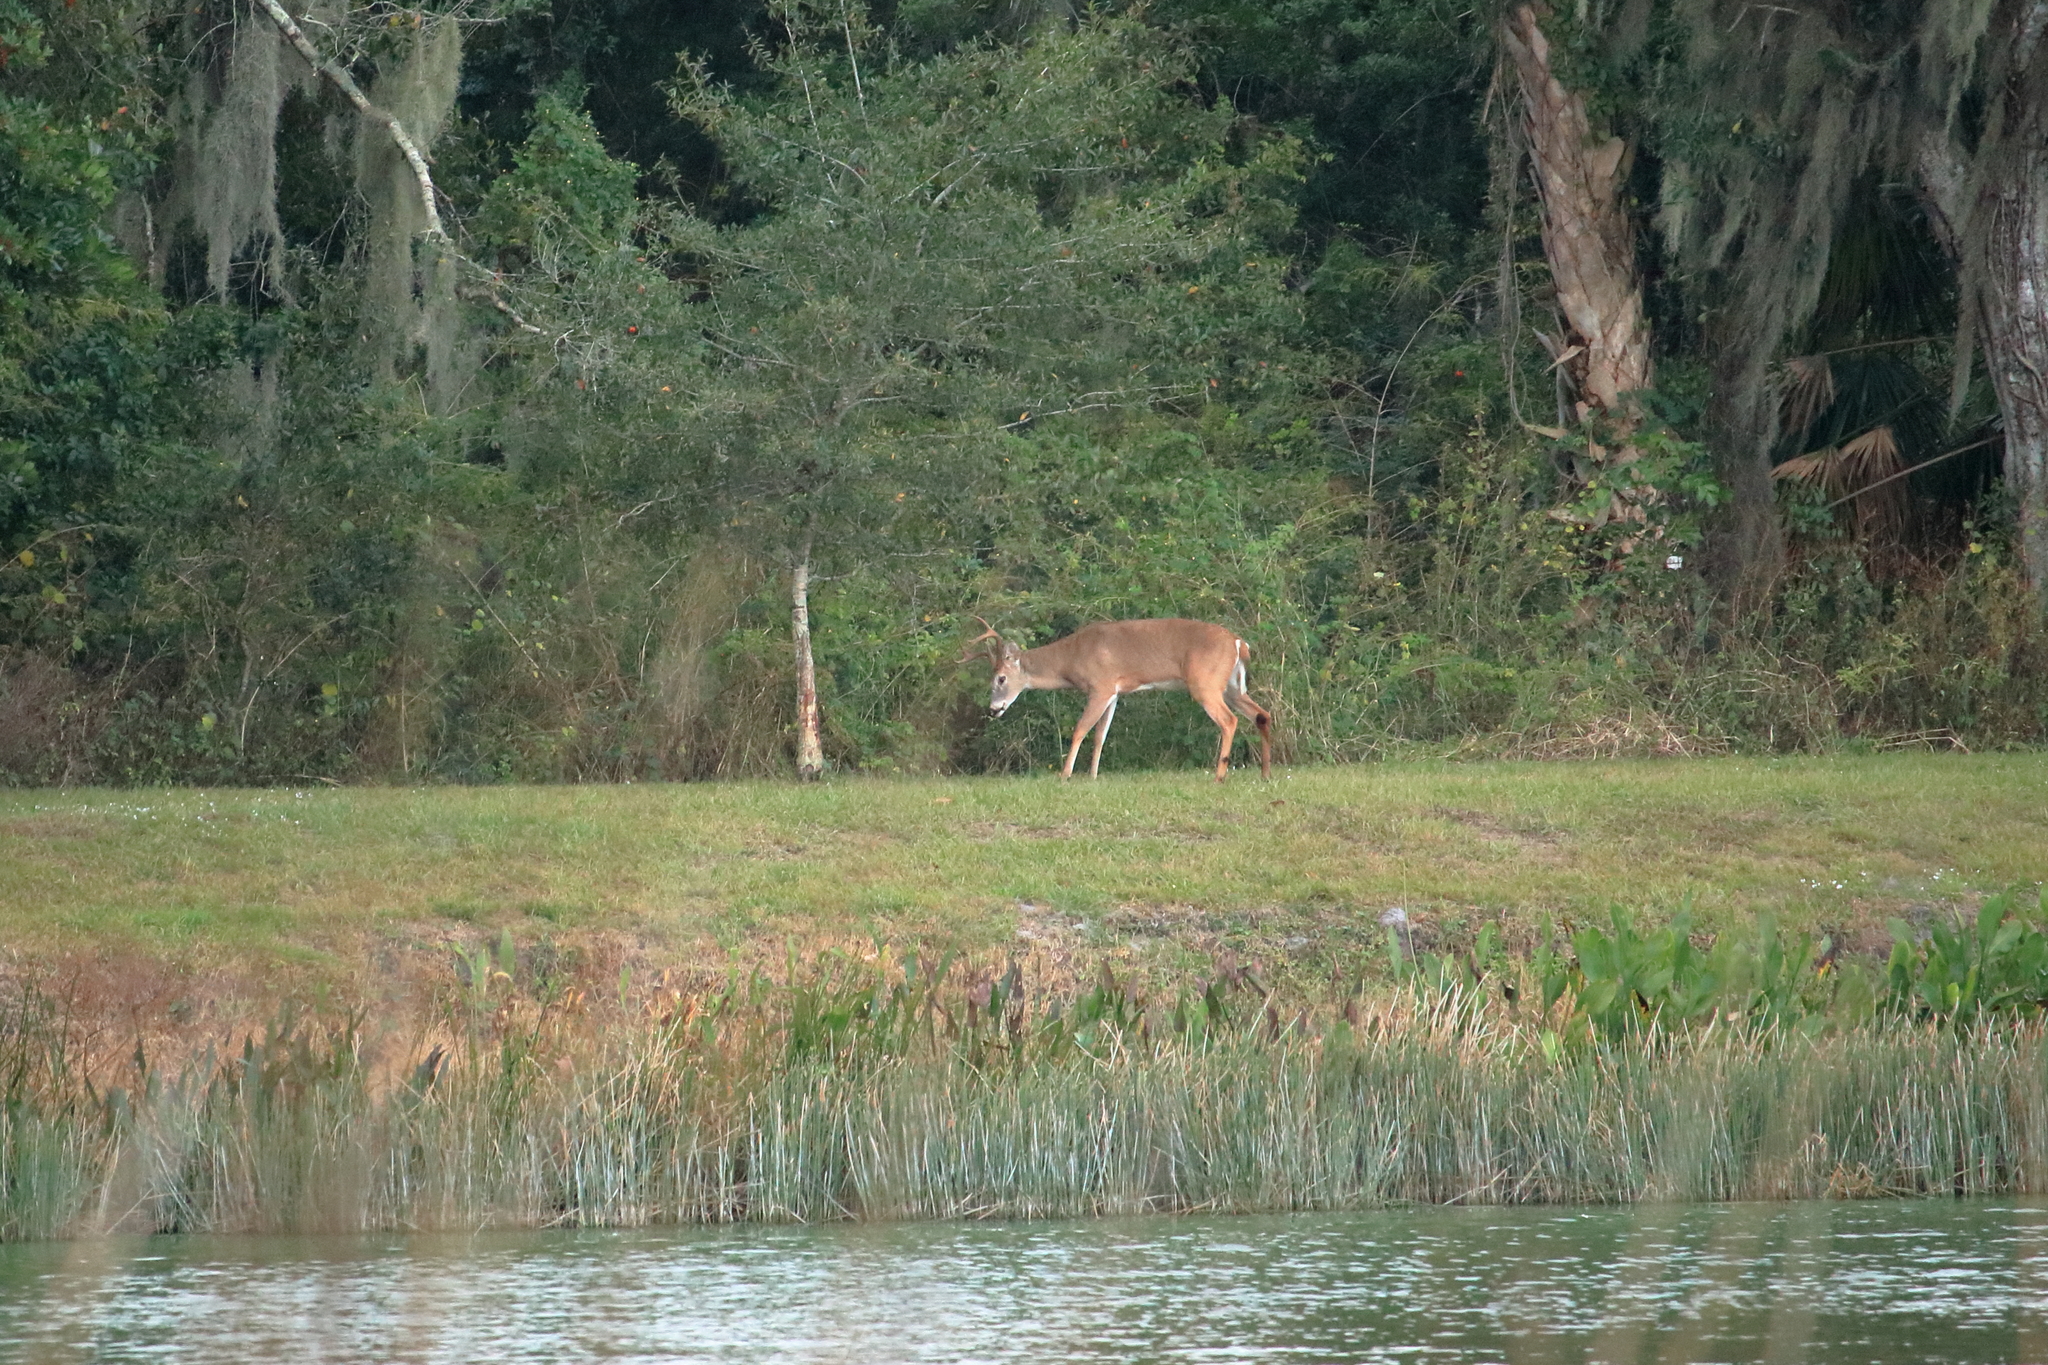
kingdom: Animalia
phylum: Chordata
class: Mammalia
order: Artiodactyla
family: Cervidae
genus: Odocoileus
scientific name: Odocoileus virginianus
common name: White-tailed deer
